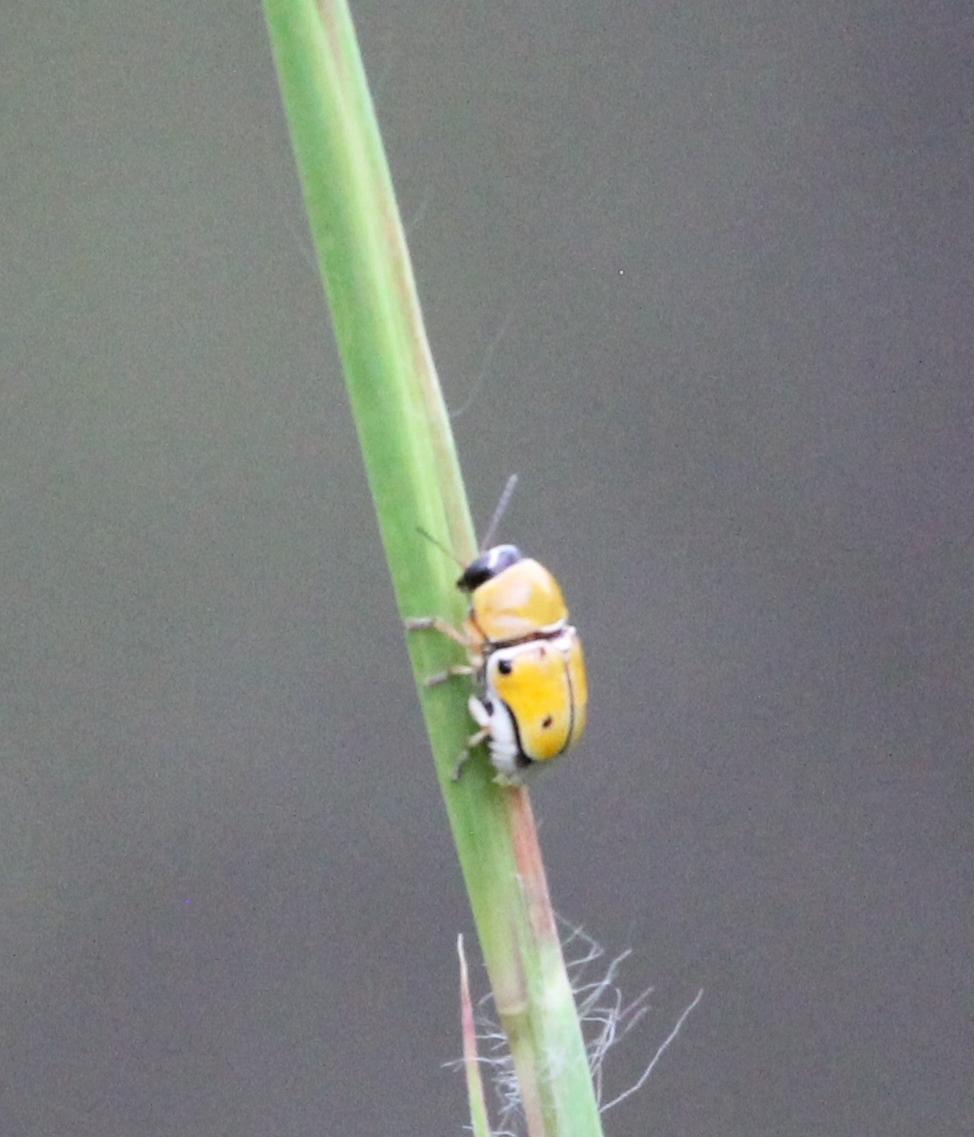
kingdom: Animalia
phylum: Arthropoda
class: Insecta
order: Coleoptera
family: Chrysomelidae
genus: Griburius
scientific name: Griburius larvatus
